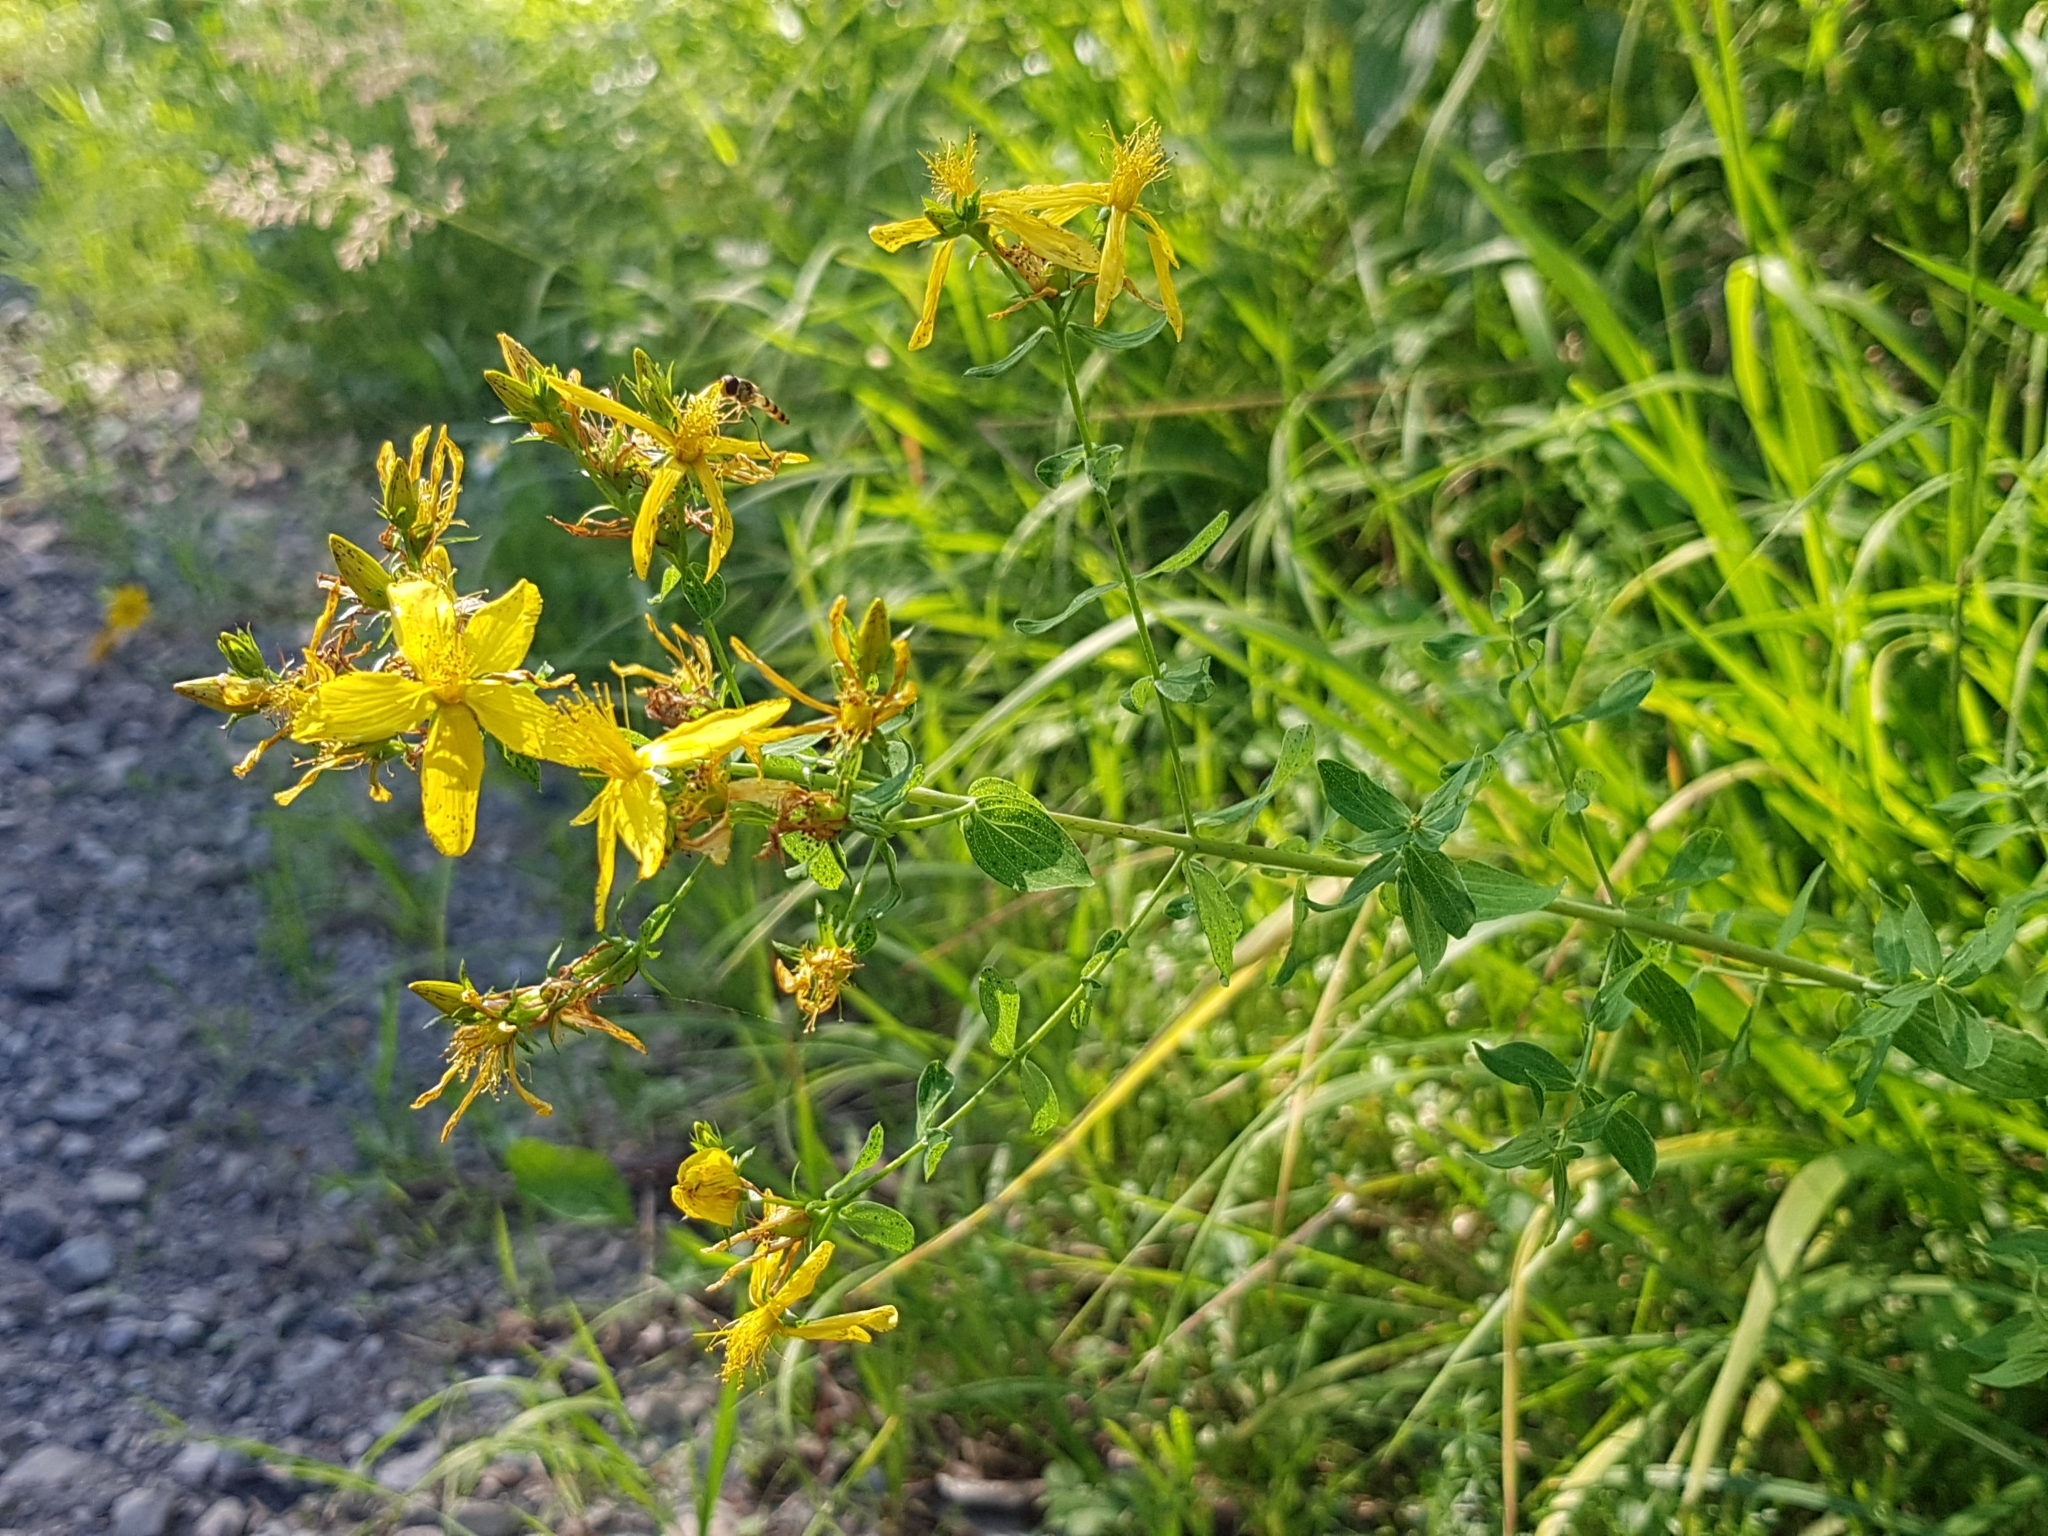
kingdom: Plantae
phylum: Tracheophyta
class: Magnoliopsida
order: Malpighiales
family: Hypericaceae
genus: Hypericum
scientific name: Hypericum perforatum
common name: Common st. johnswort
